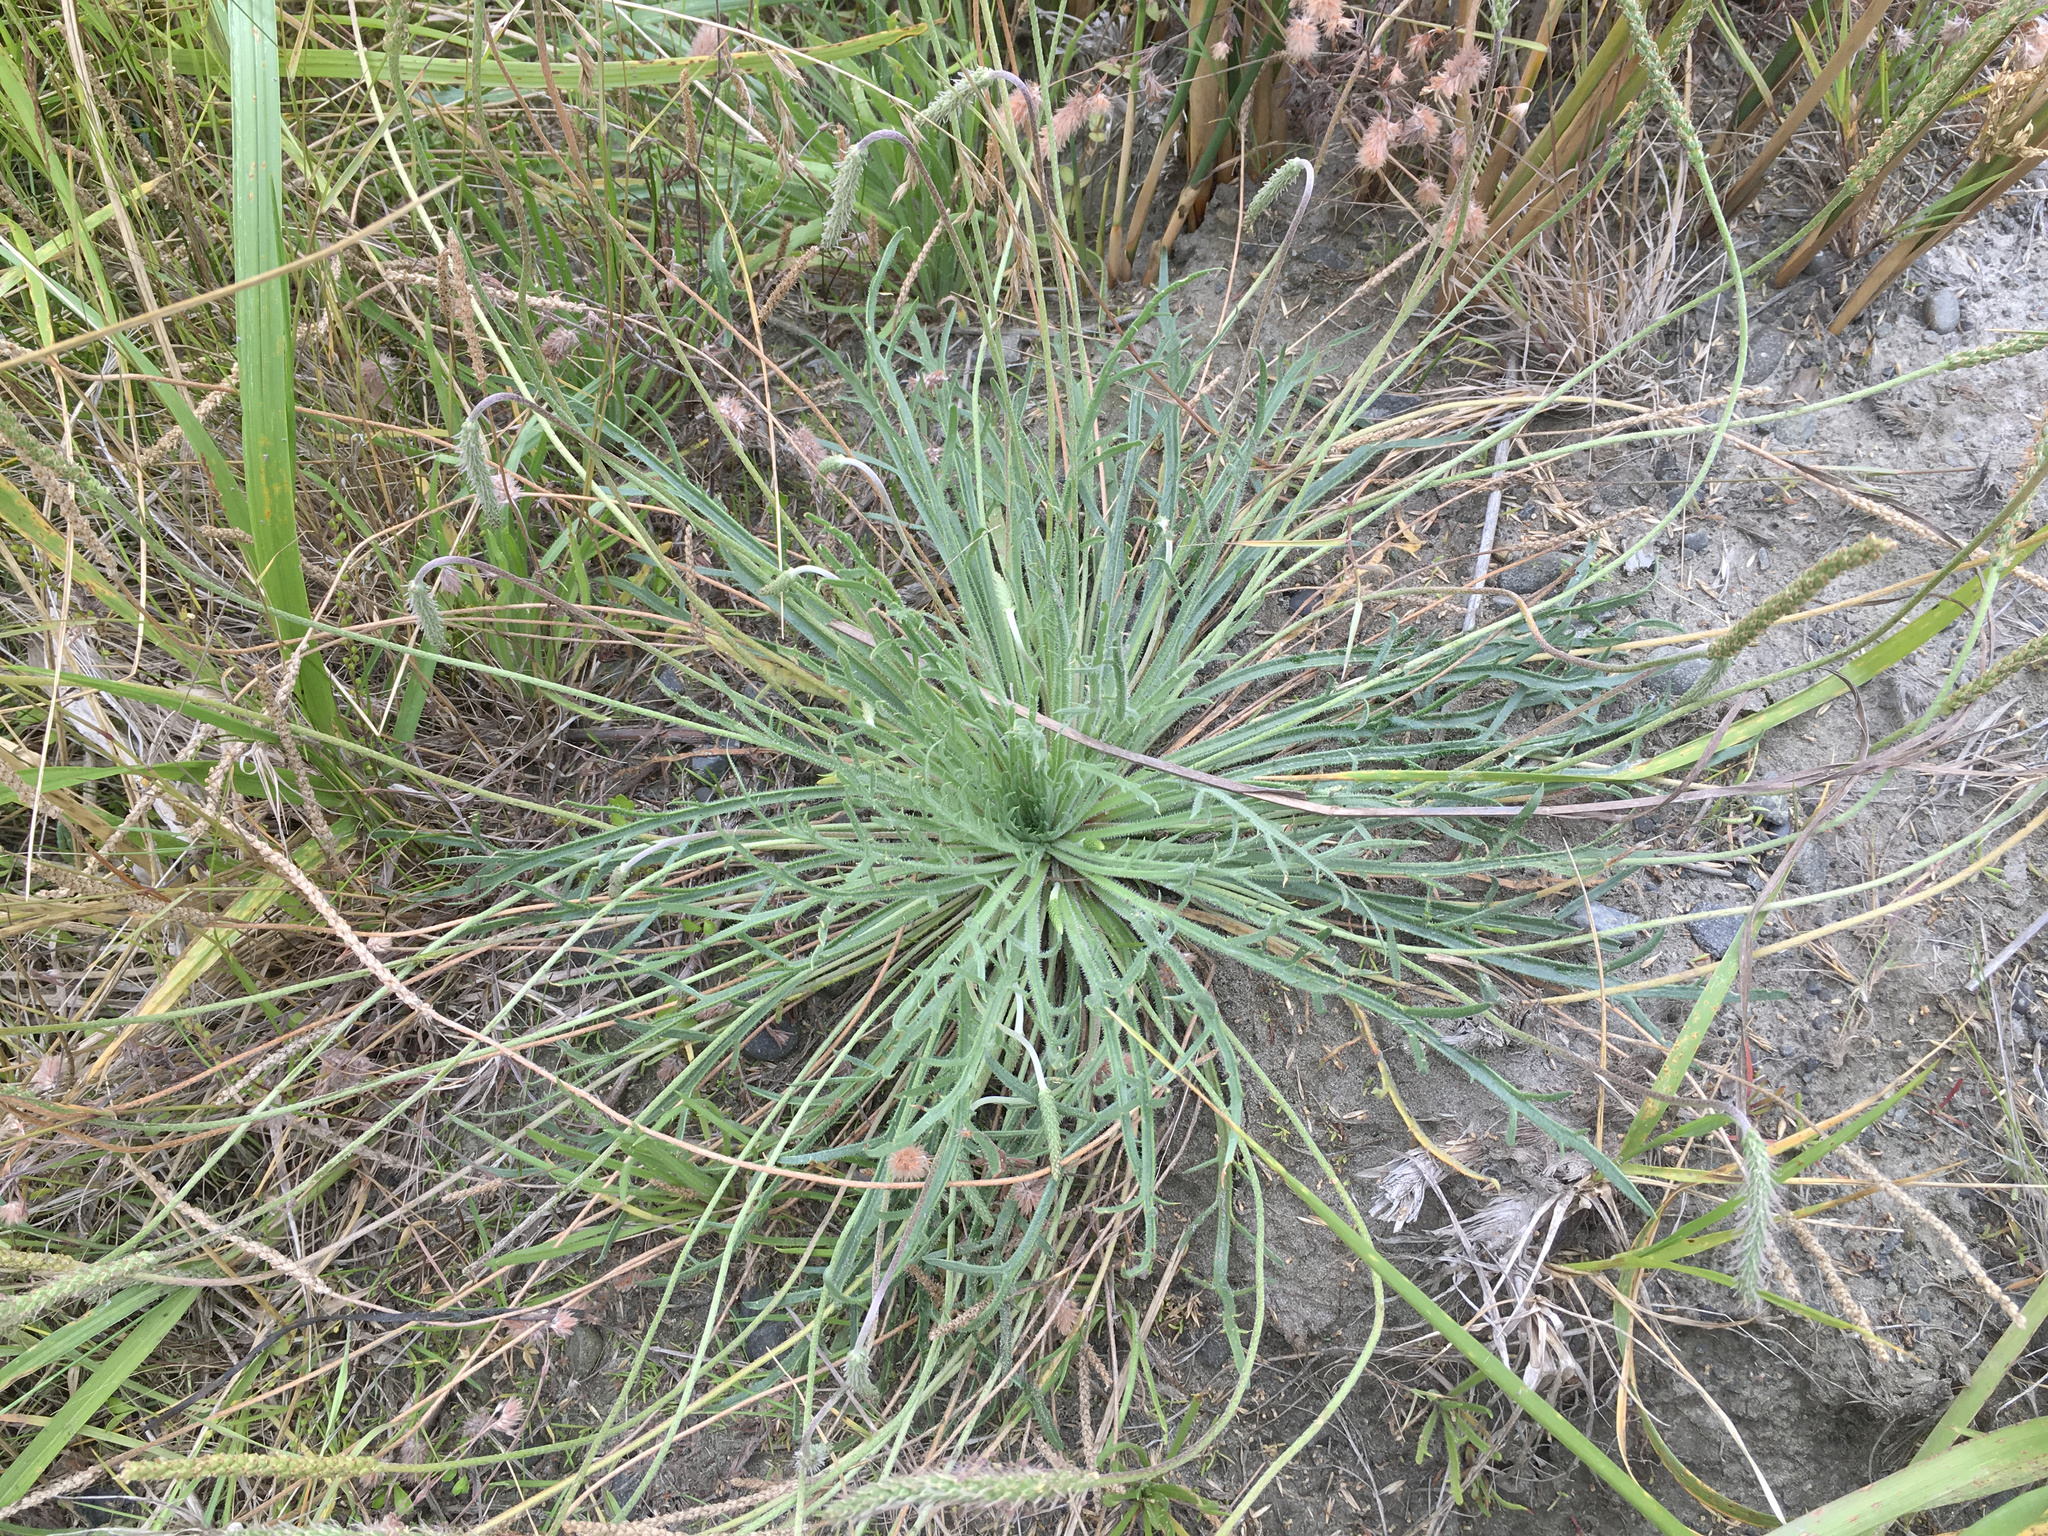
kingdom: Plantae
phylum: Tracheophyta
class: Magnoliopsida
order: Lamiales
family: Plantaginaceae
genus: Plantago
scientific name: Plantago coronopus
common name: Buck's-horn plantain
